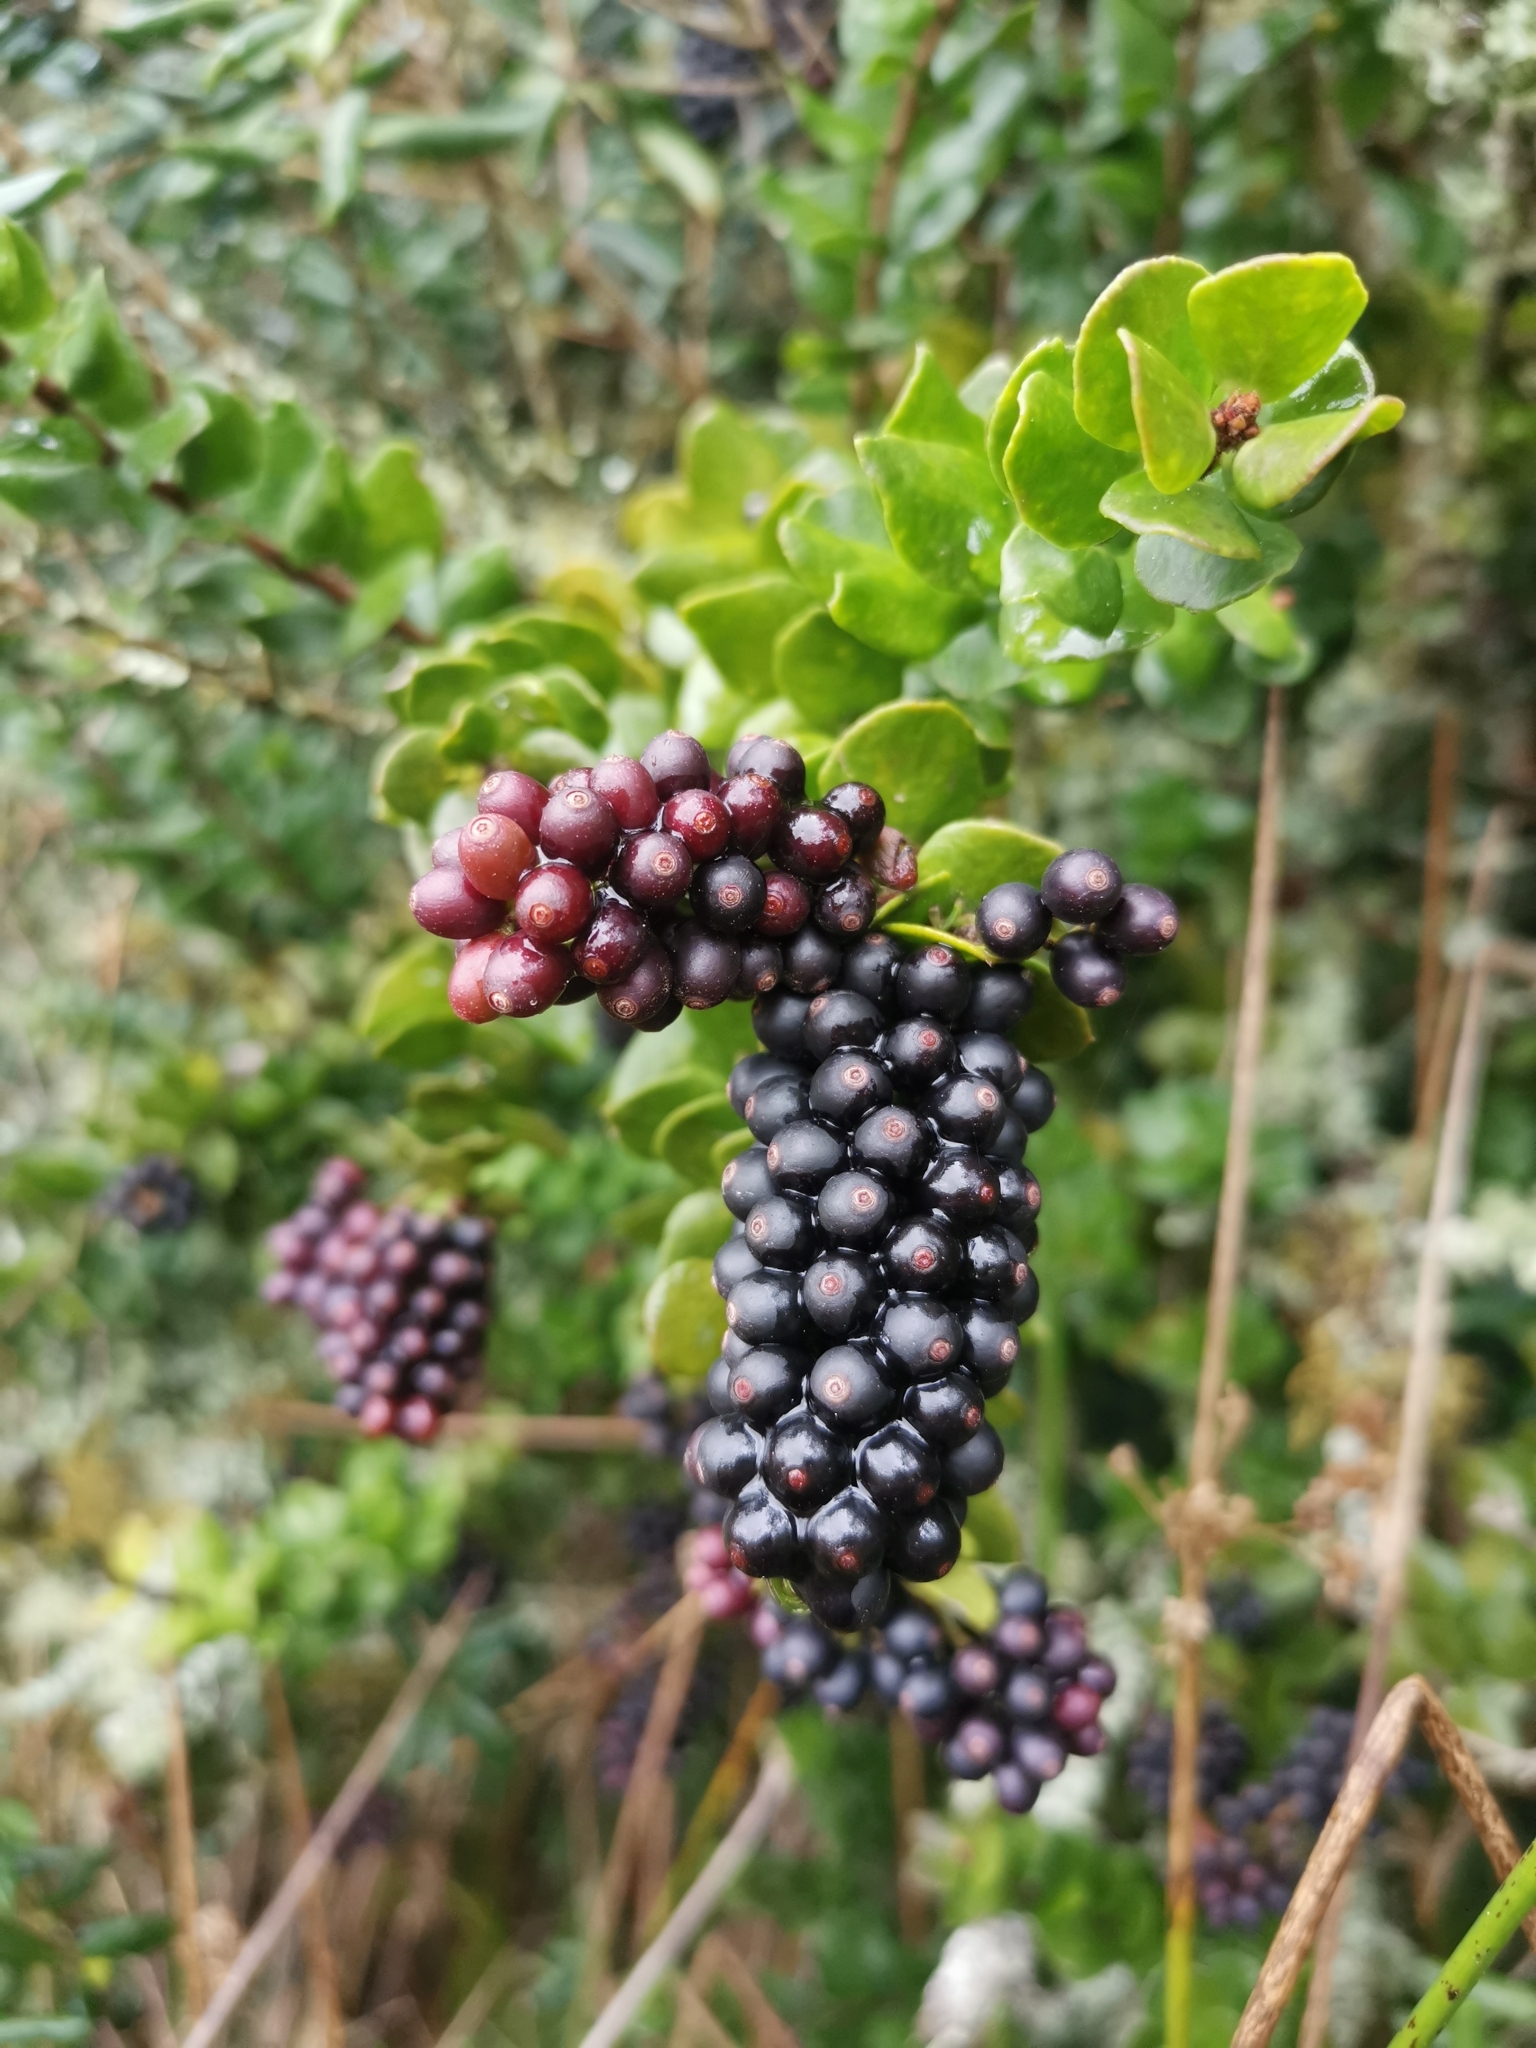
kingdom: Plantae
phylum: Tracheophyta
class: Magnoliopsida
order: Santalales
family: Loranthaceae
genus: Notanthera
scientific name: Notanthera heterophylla
